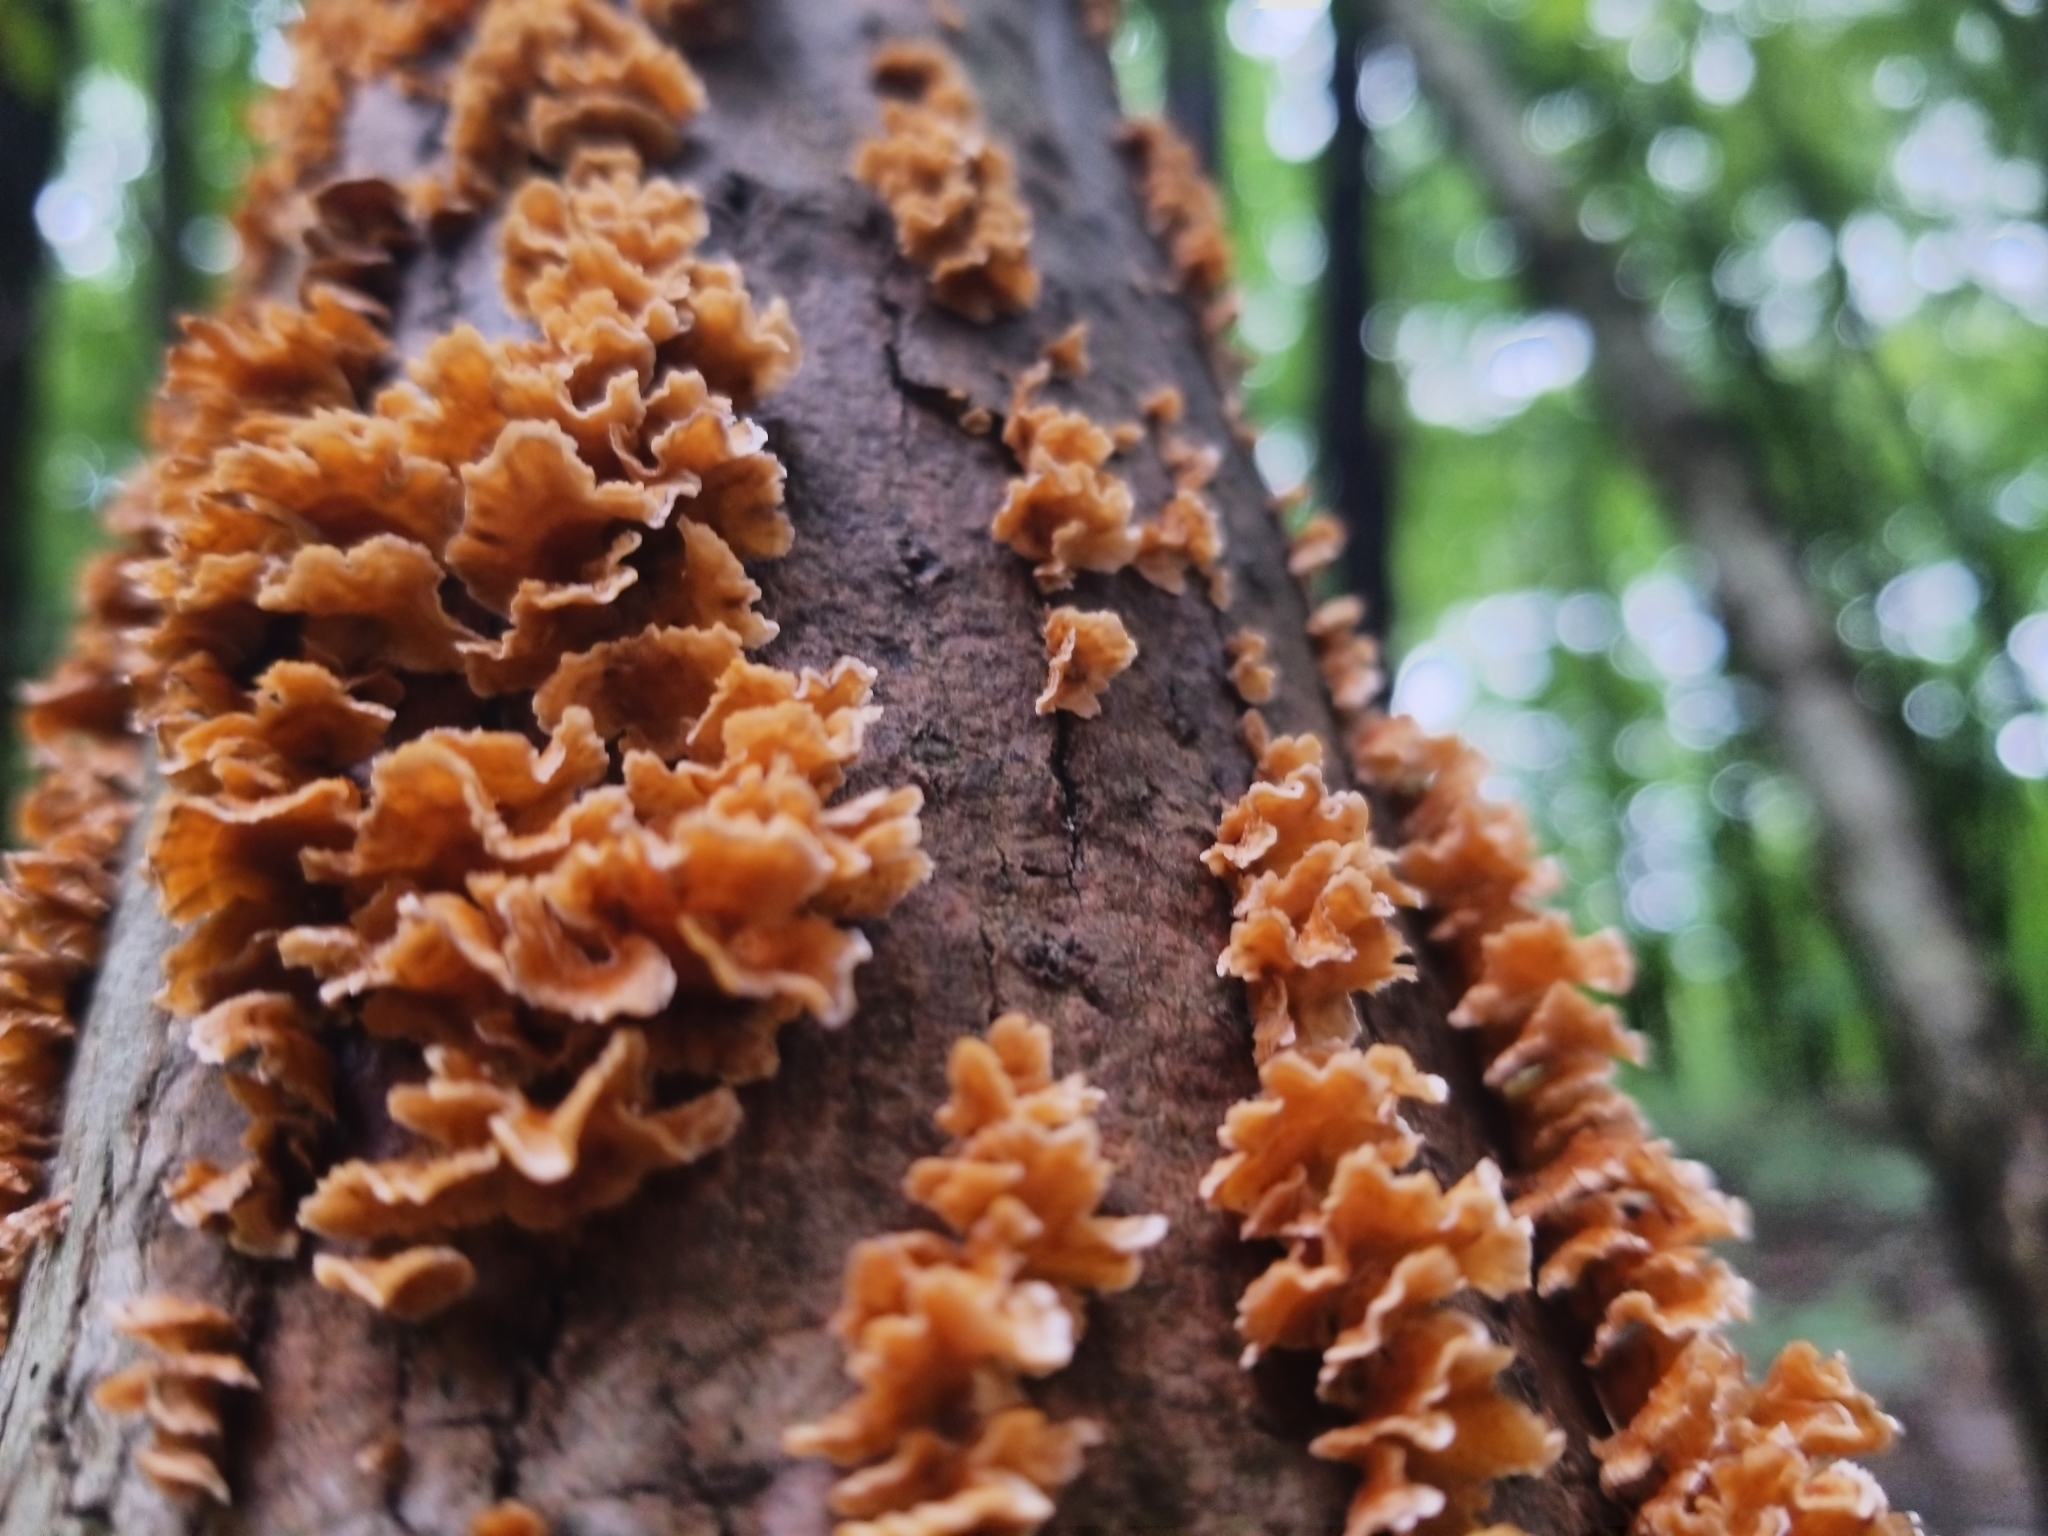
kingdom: Fungi
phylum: Basidiomycota
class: Agaricomycetes
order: Russulales
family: Stereaceae
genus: Stereum
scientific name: Stereum complicatum
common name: Crowded parchment
